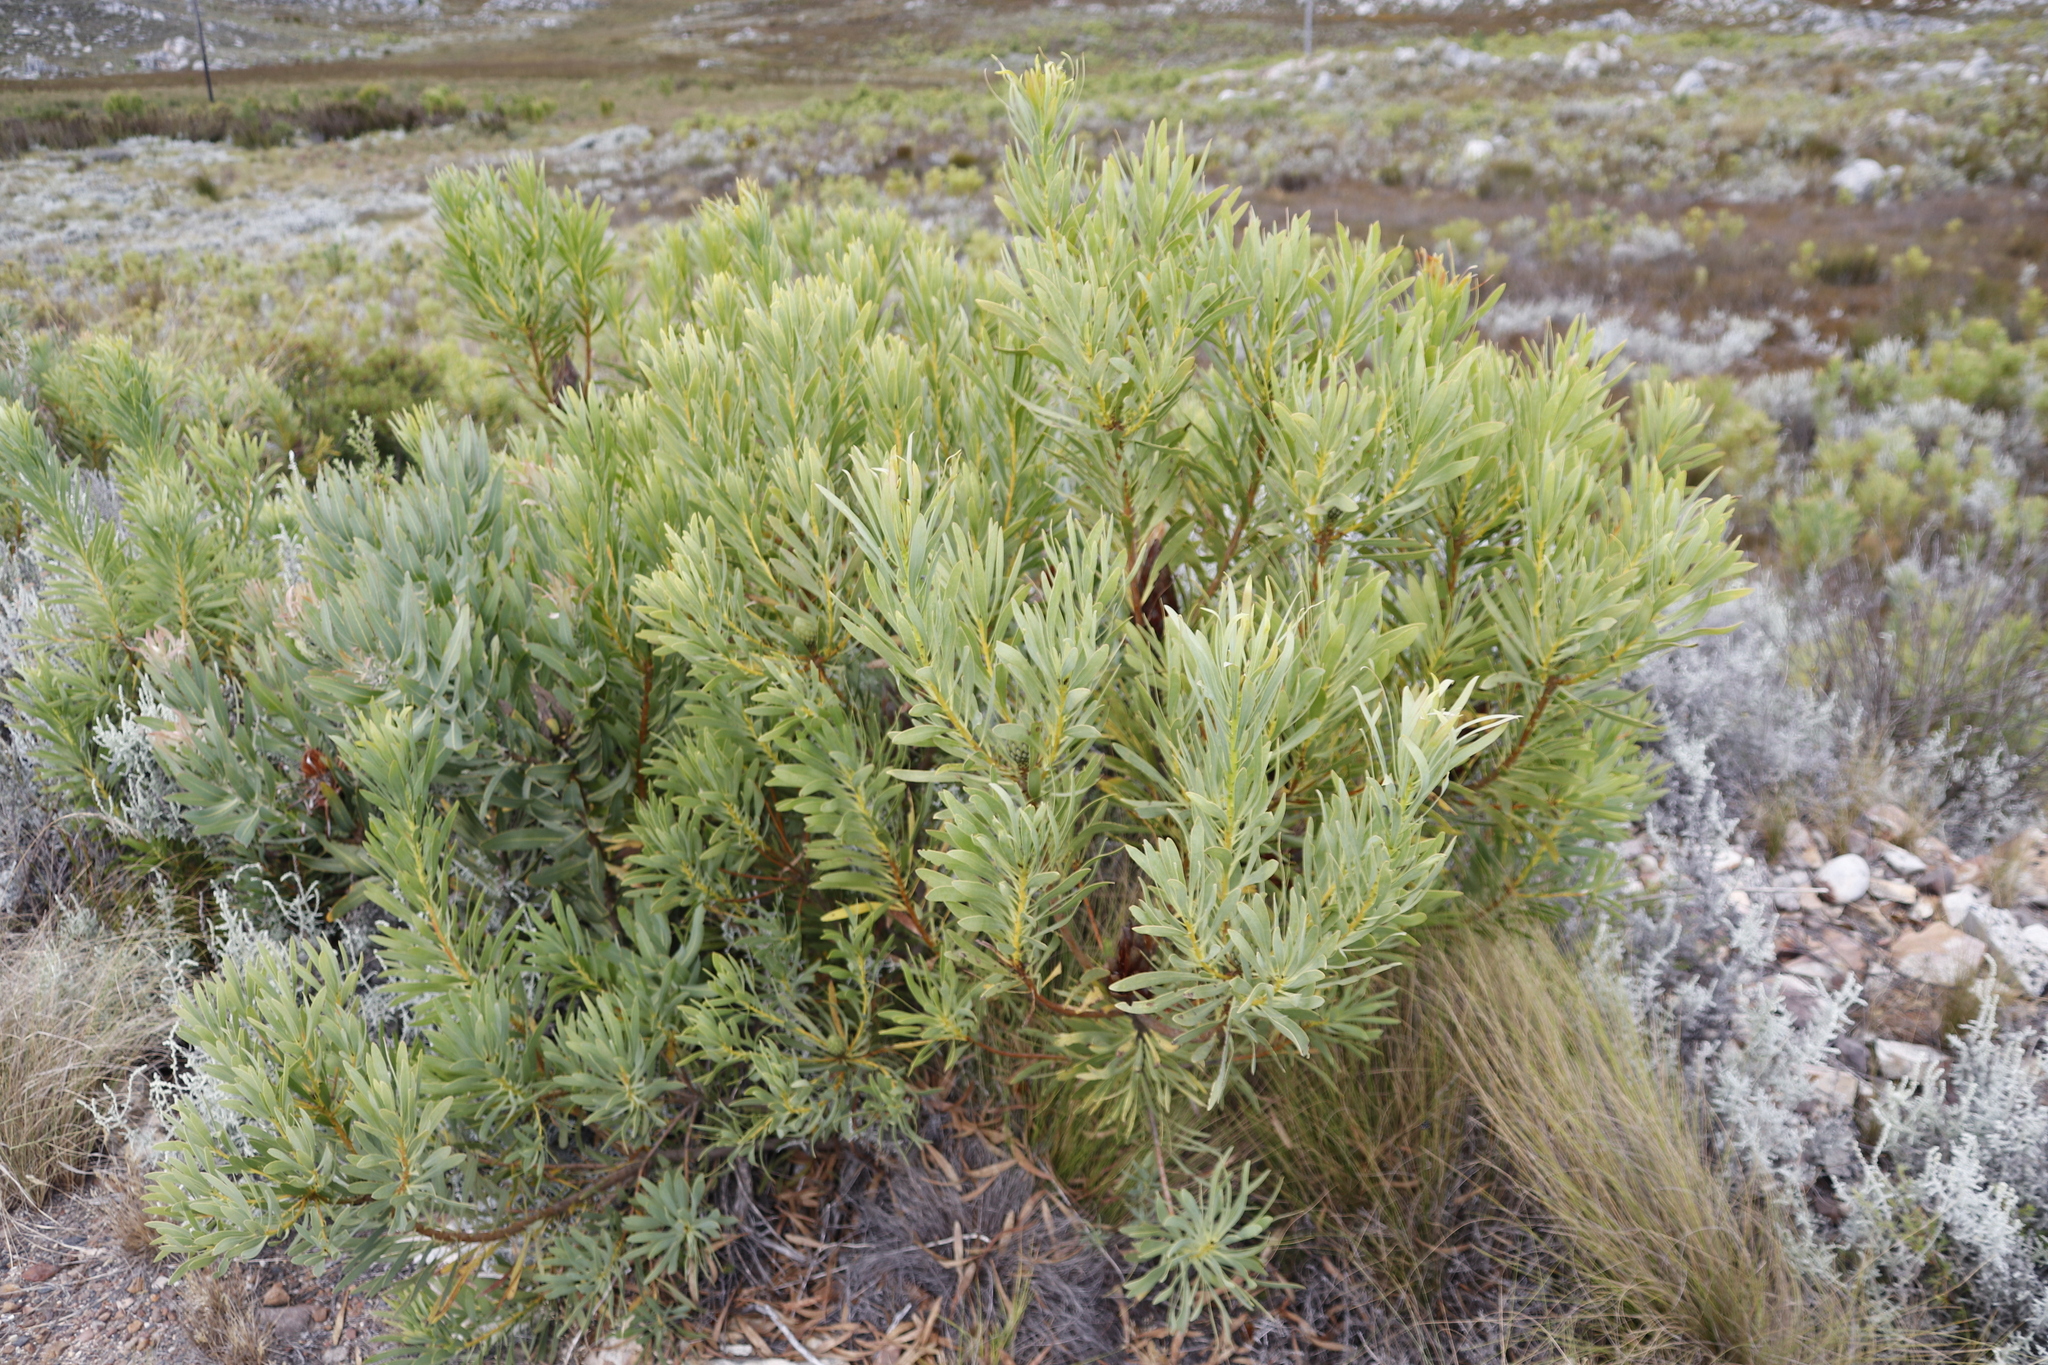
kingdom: Plantae
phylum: Tracheophyta
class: Magnoliopsida
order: Proteales
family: Proteaceae
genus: Protea
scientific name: Protea repens
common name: Sugarbush
